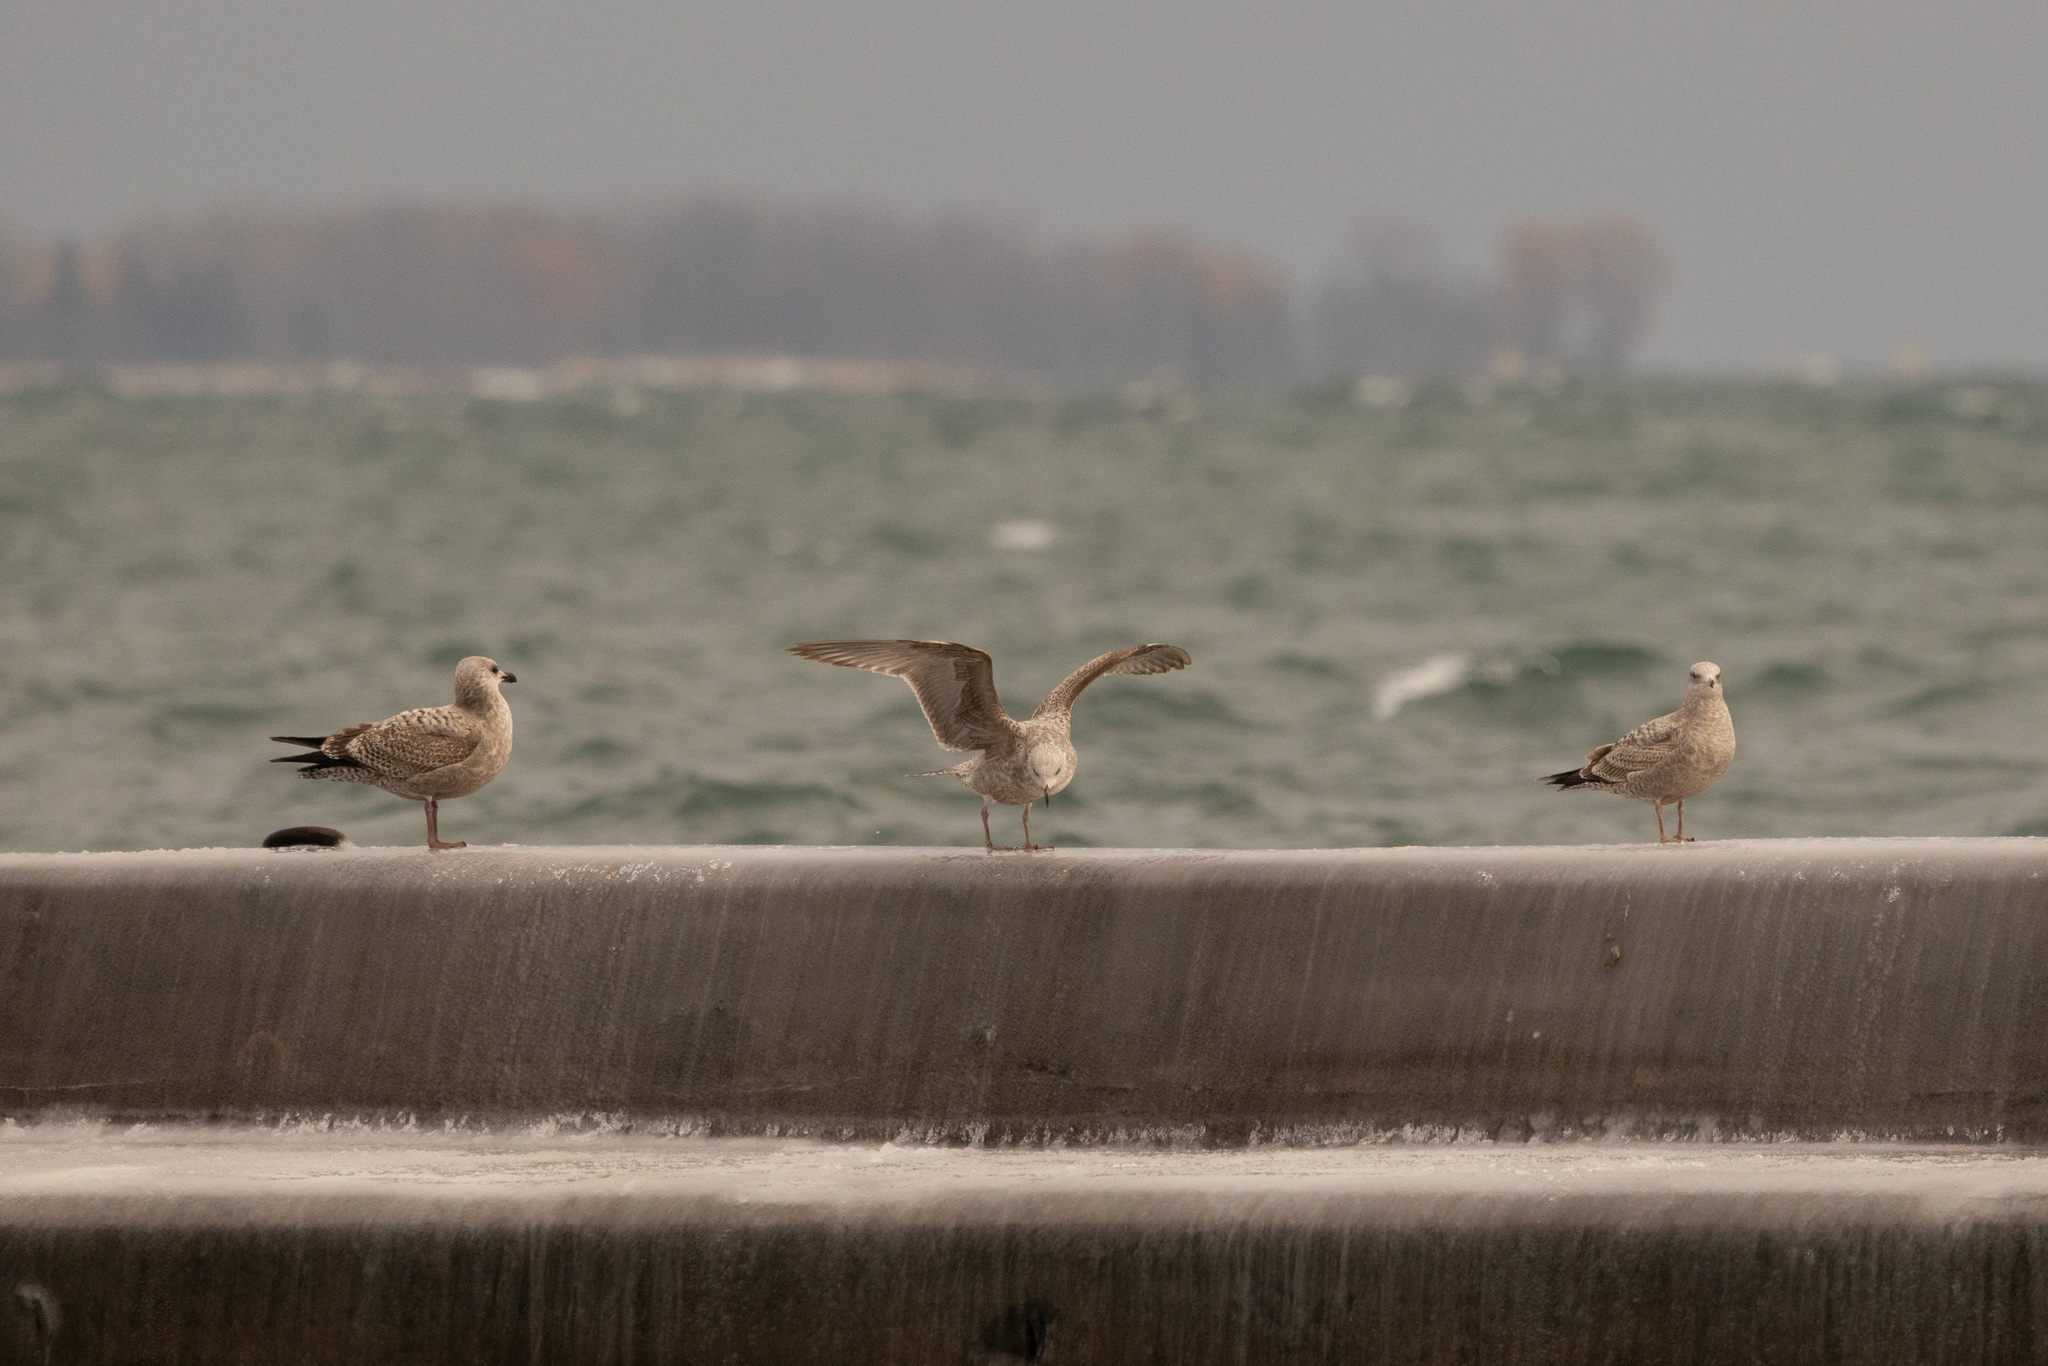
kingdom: Animalia
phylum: Chordata
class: Aves
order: Charadriiformes
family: Laridae
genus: Larus
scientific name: Larus argentatus
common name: Herring gull
